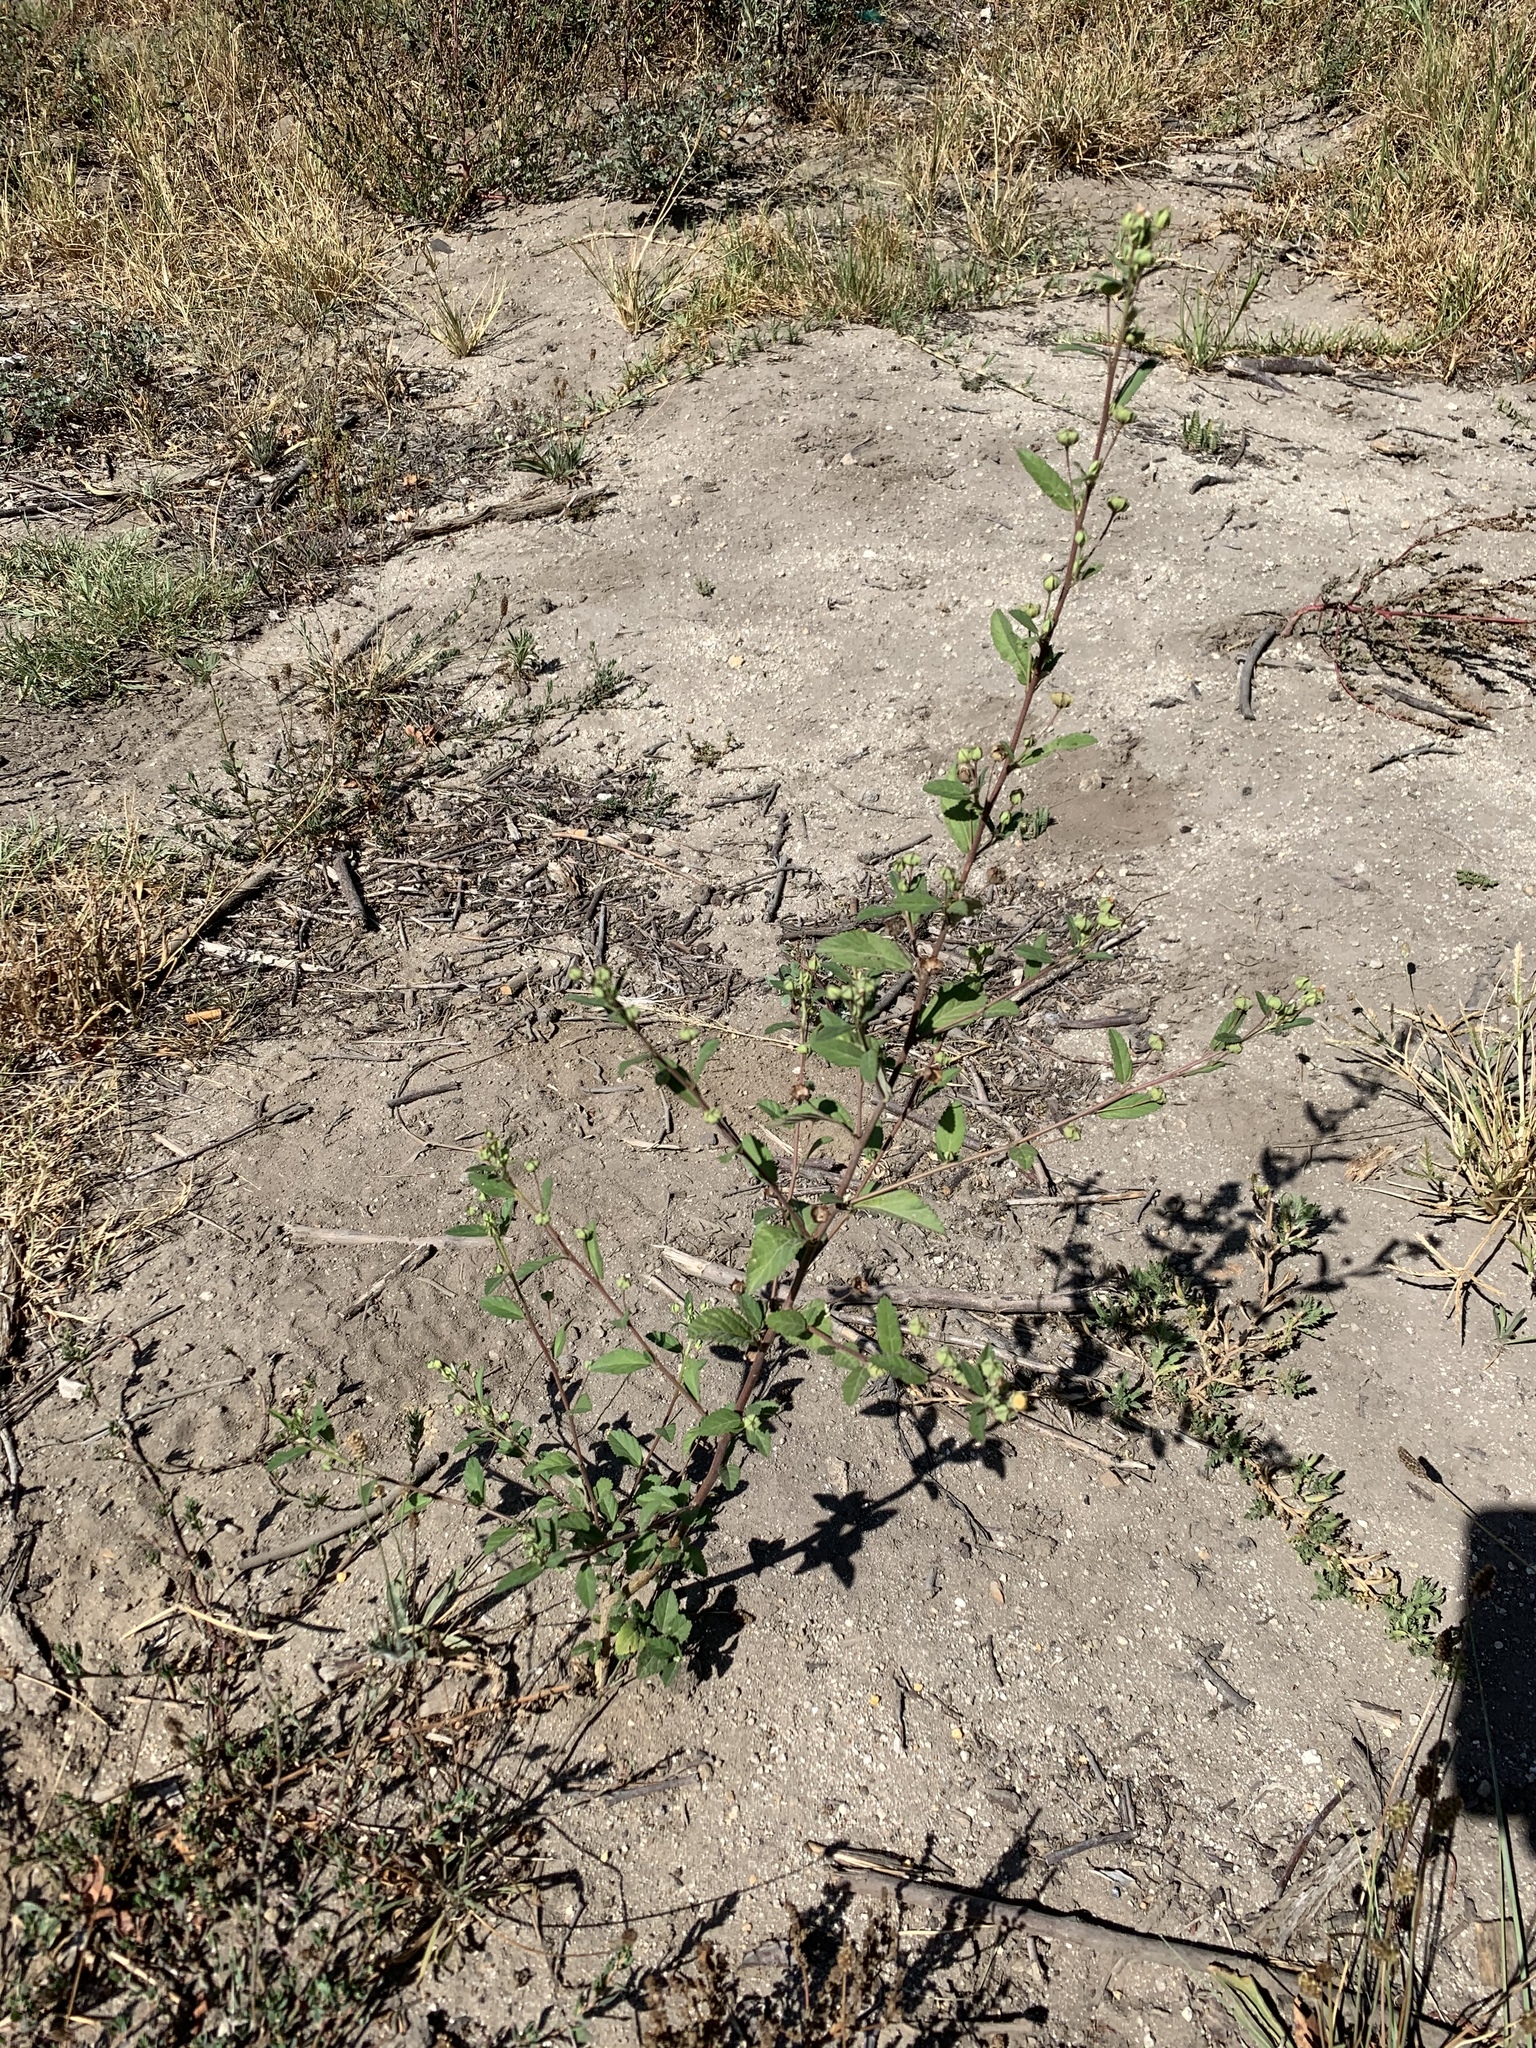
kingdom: Plantae
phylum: Tracheophyta
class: Magnoliopsida
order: Malvales
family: Malvaceae
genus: Sida
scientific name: Sida rhombifolia
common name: Queensland-hemp
